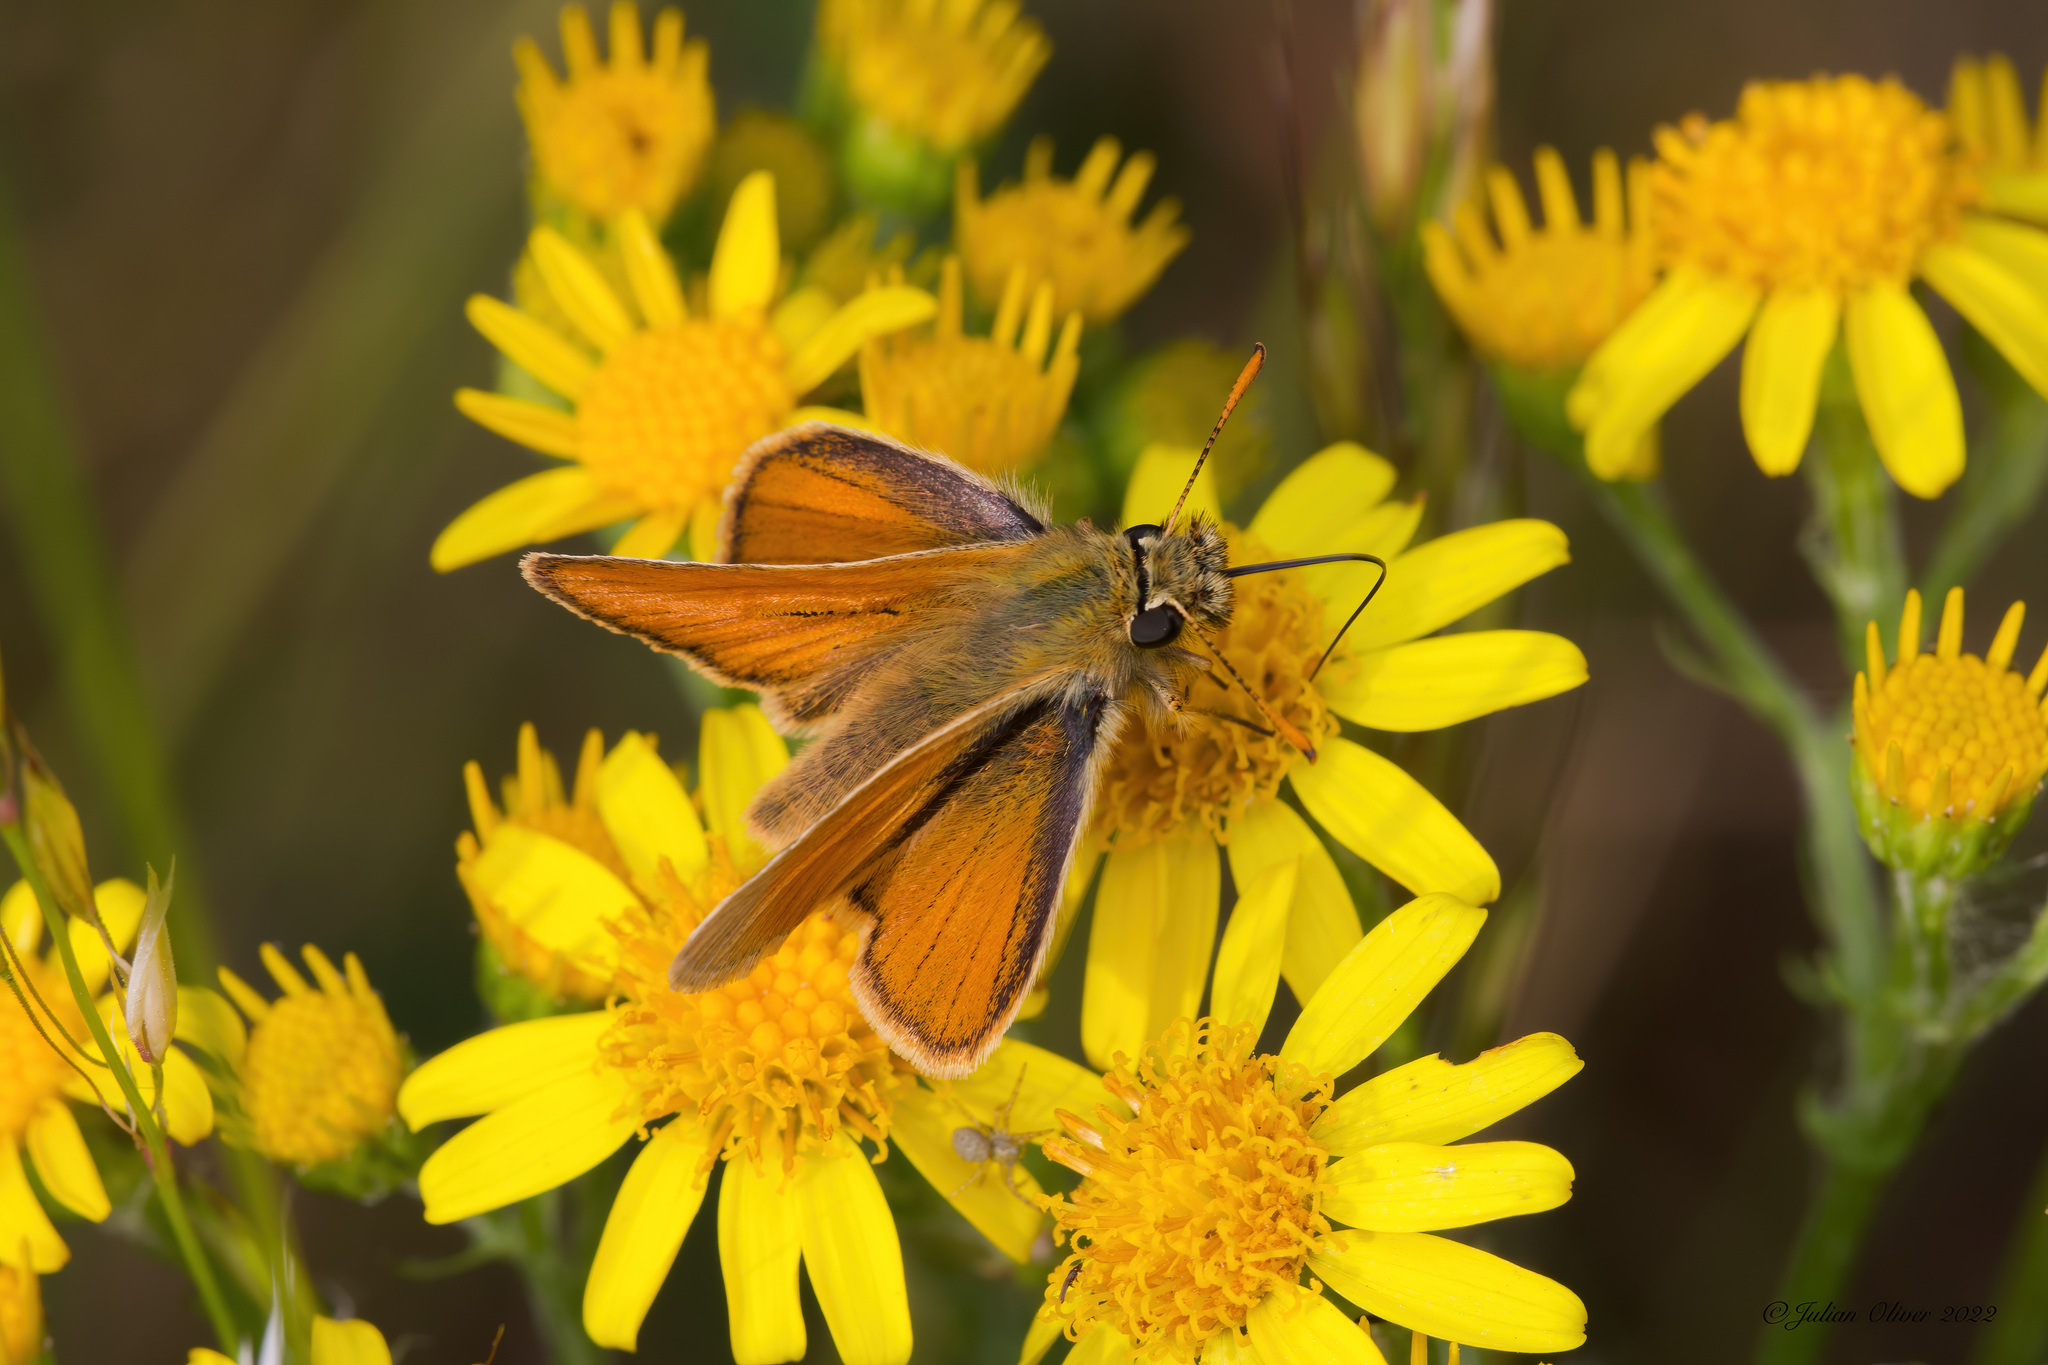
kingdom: Animalia
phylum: Arthropoda
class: Insecta
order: Lepidoptera
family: Hesperiidae
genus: Thymelicus
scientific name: Thymelicus sylvestris
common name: Small skipper
